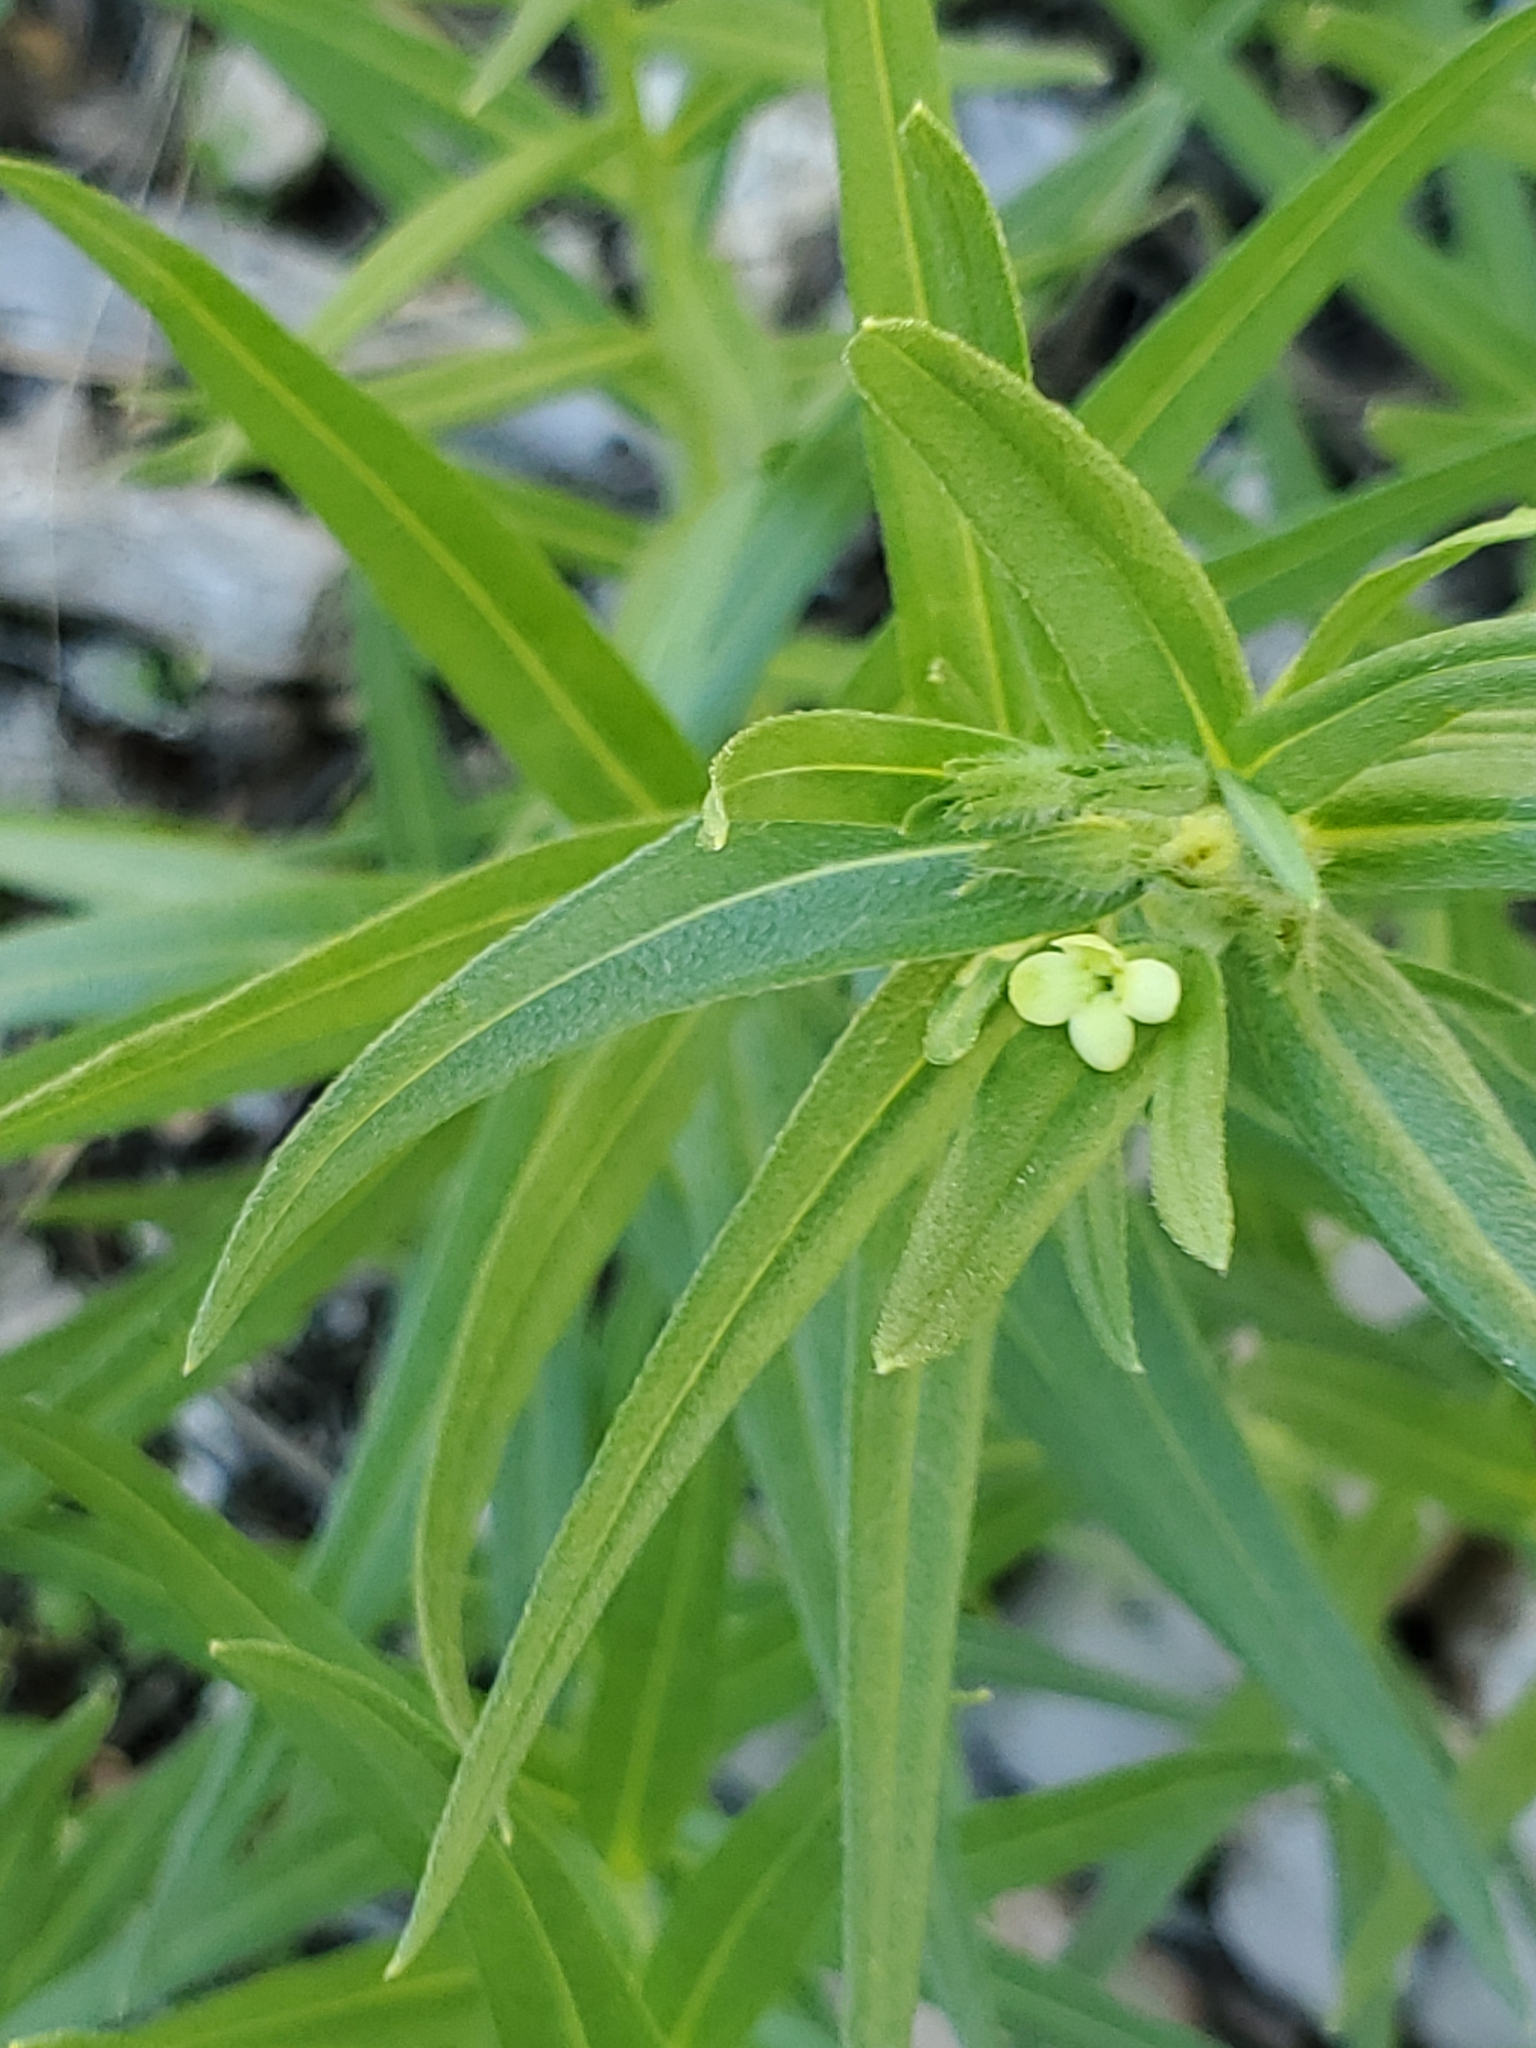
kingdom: Plantae
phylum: Tracheophyta
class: Magnoliopsida
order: Boraginales
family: Boraginaceae
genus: Lithospermum
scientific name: Lithospermum ruderale
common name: Western gromwell
